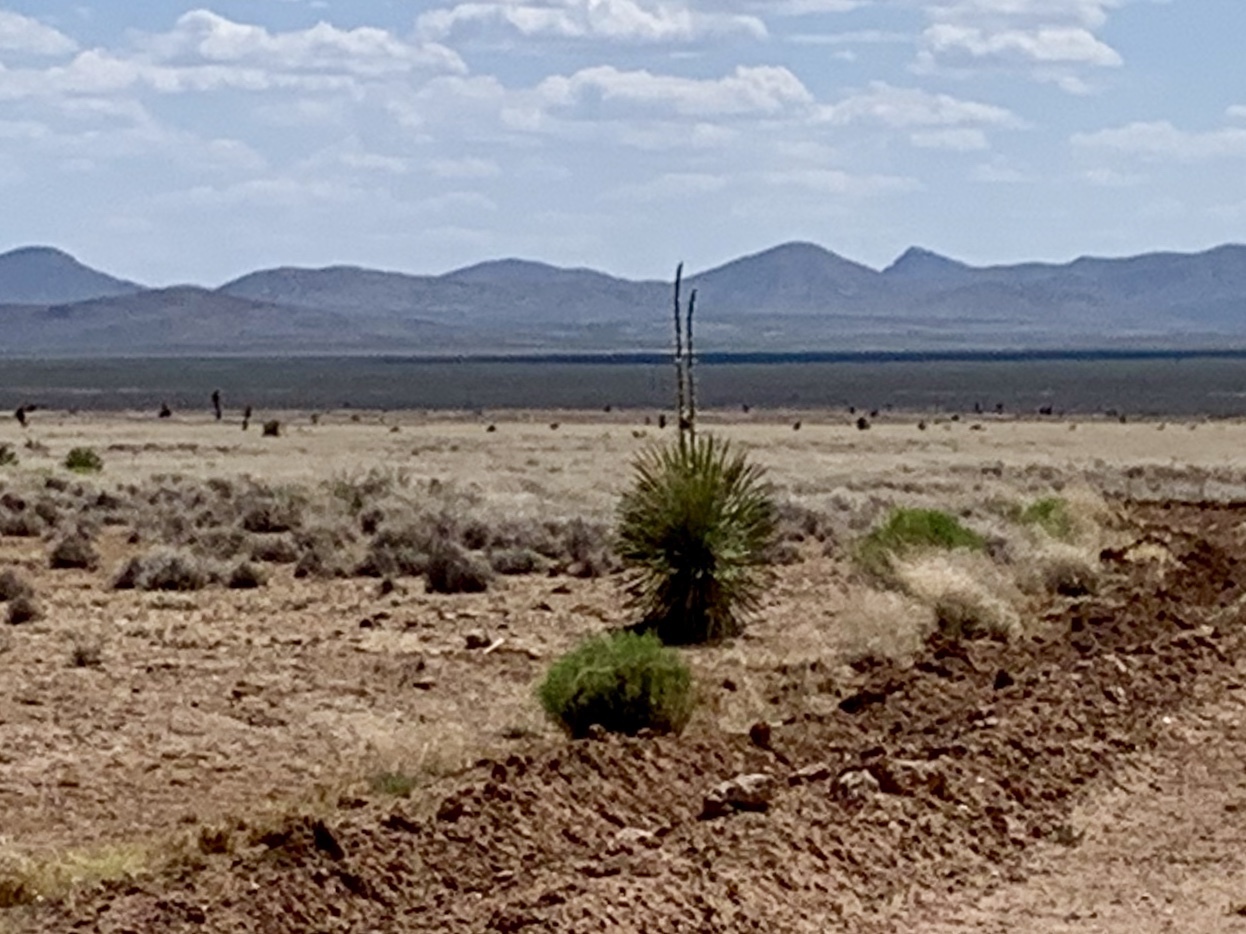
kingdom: Plantae
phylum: Tracheophyta
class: Liliopsida
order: Asparagales
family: Asparagaceae
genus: Yucca
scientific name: Yucca elata
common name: Palmella
